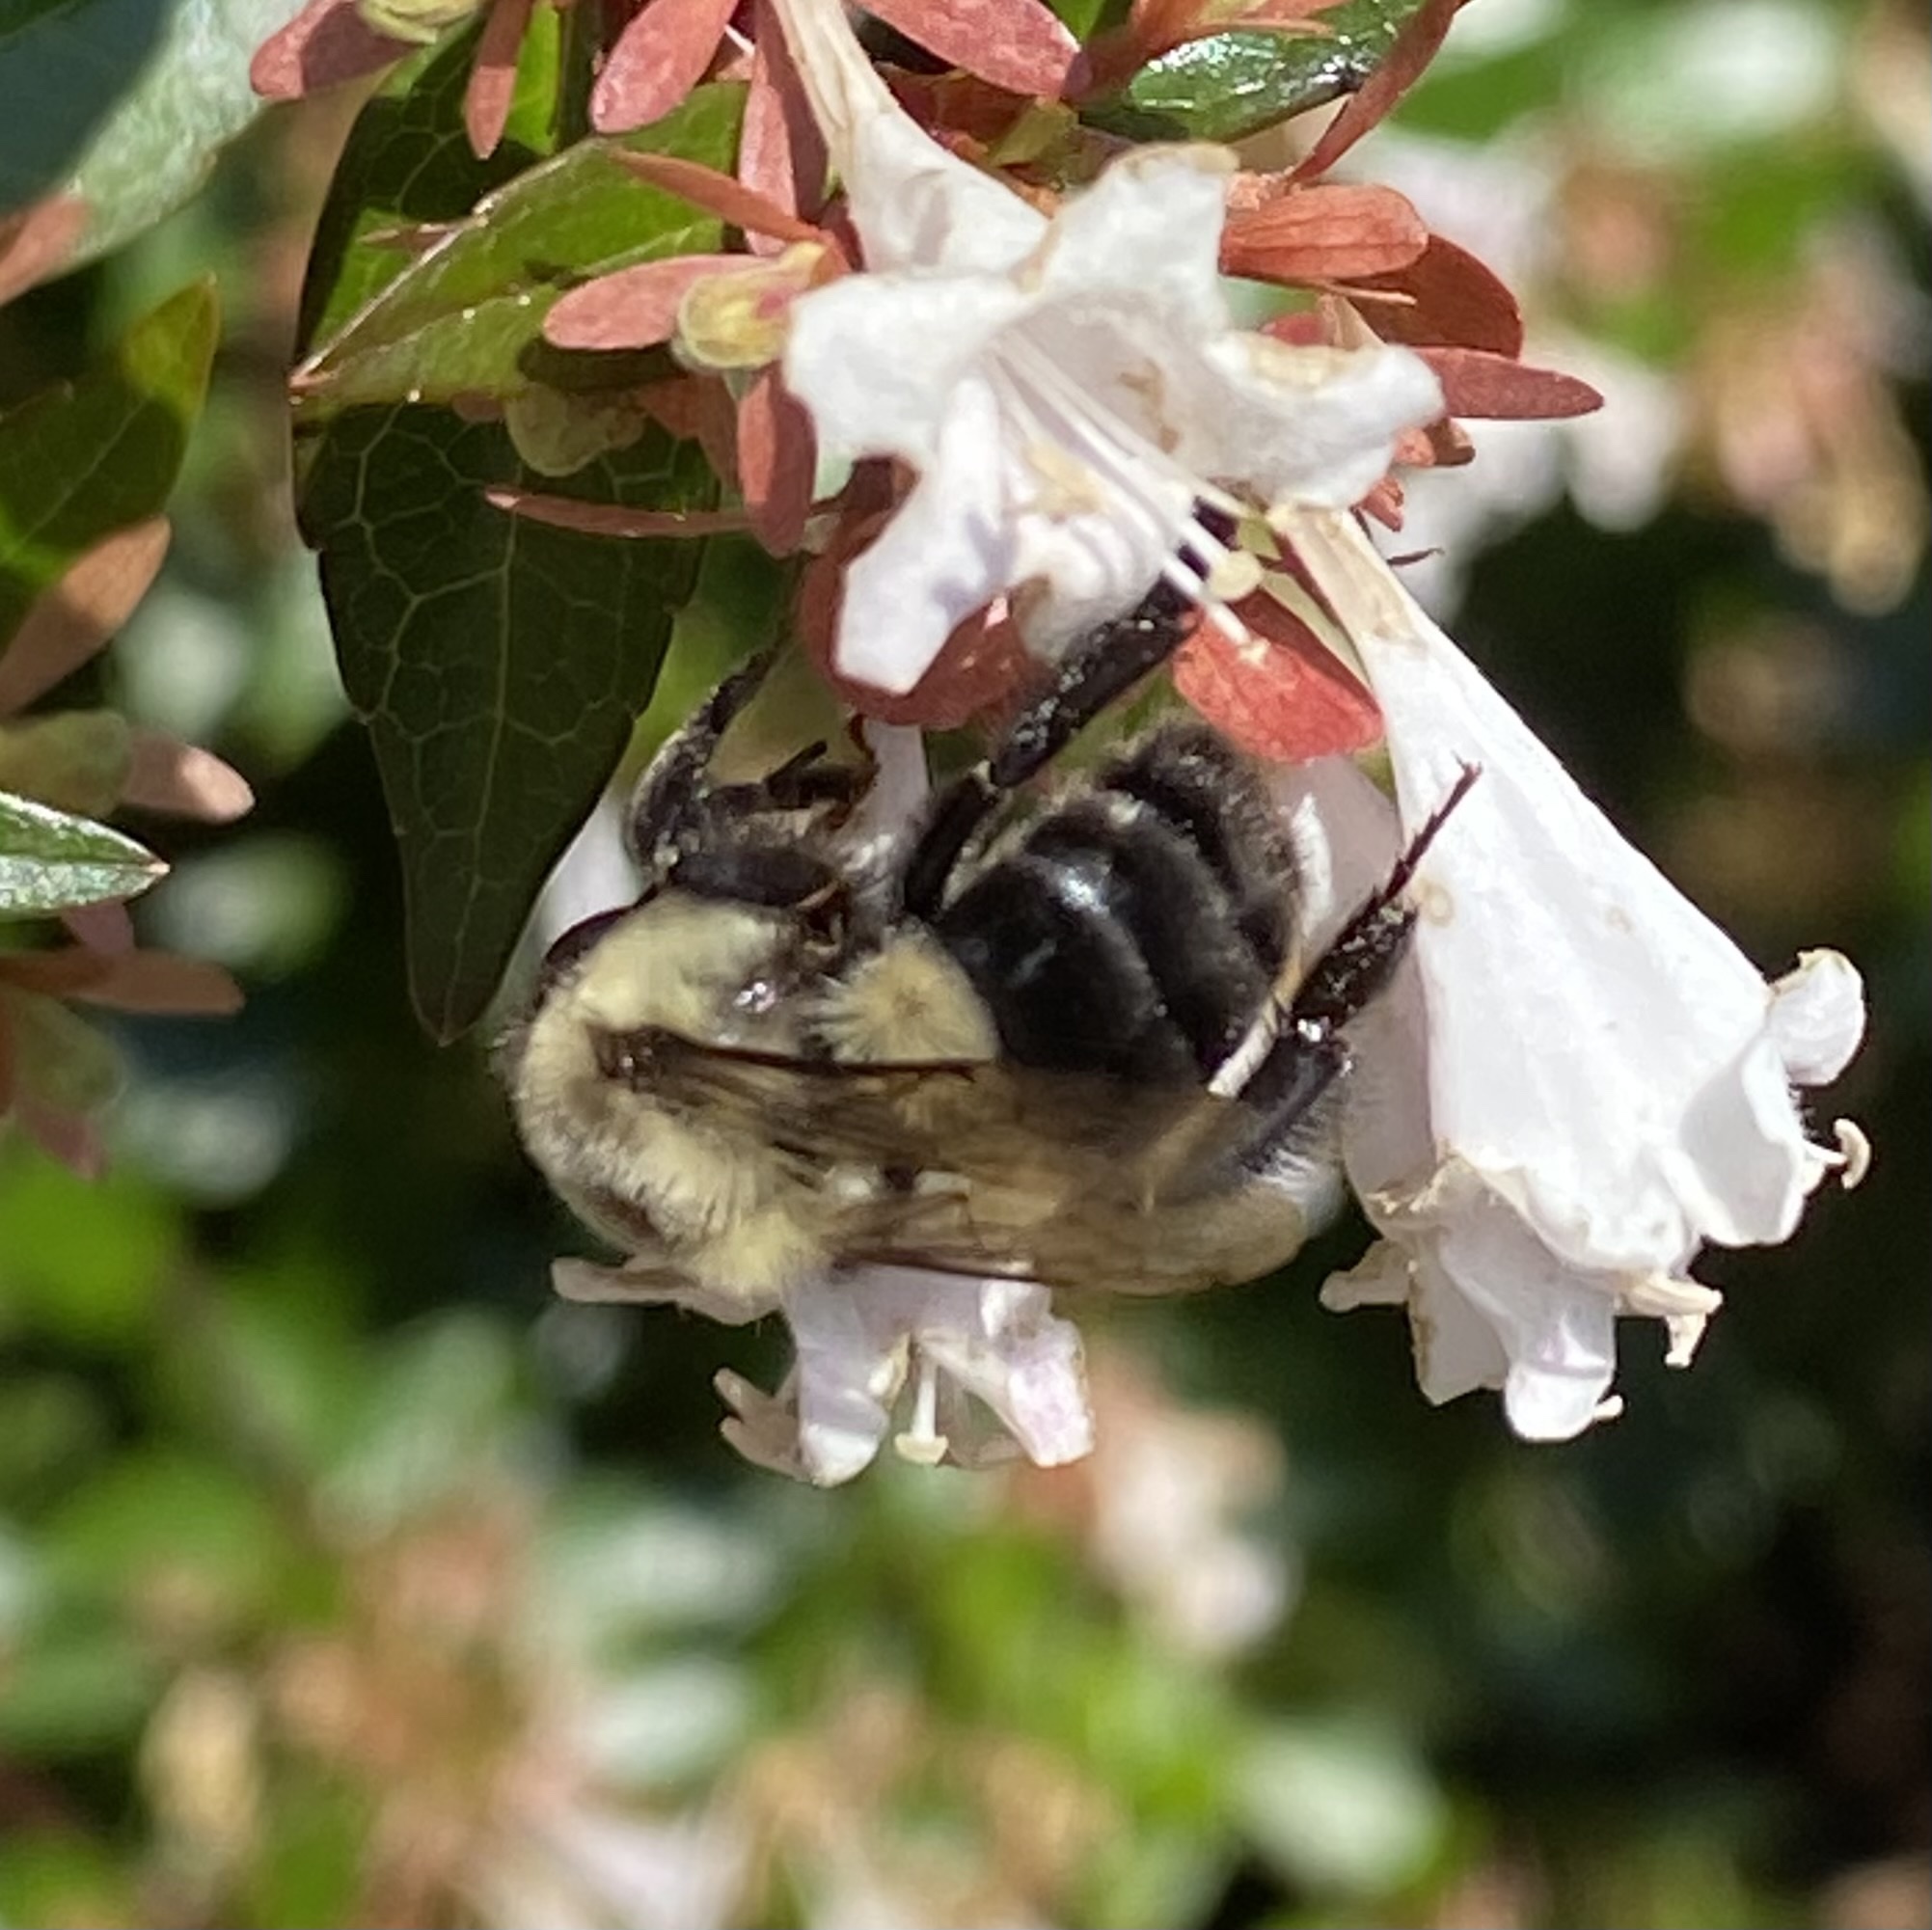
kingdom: Animalia
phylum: Arthropoda
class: Insecta
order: Hymenoptera
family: Apidae
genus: Bombus
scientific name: Bombus impatiens
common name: Common eastern bumble bee
